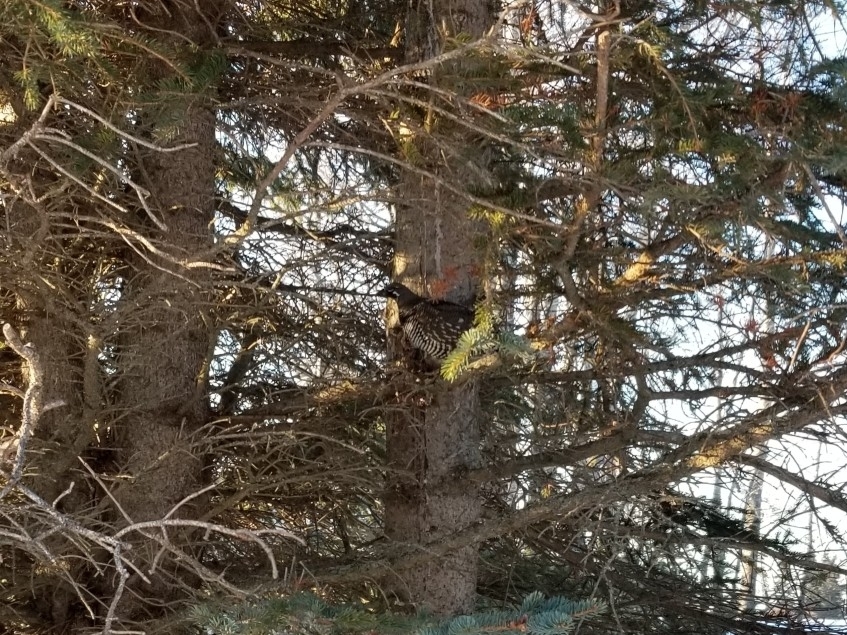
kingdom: Animalia
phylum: Chordata
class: Aves
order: Galliformes
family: Phasianidae
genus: Canachites
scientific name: Canachites canadensis
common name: Spruce grouse
